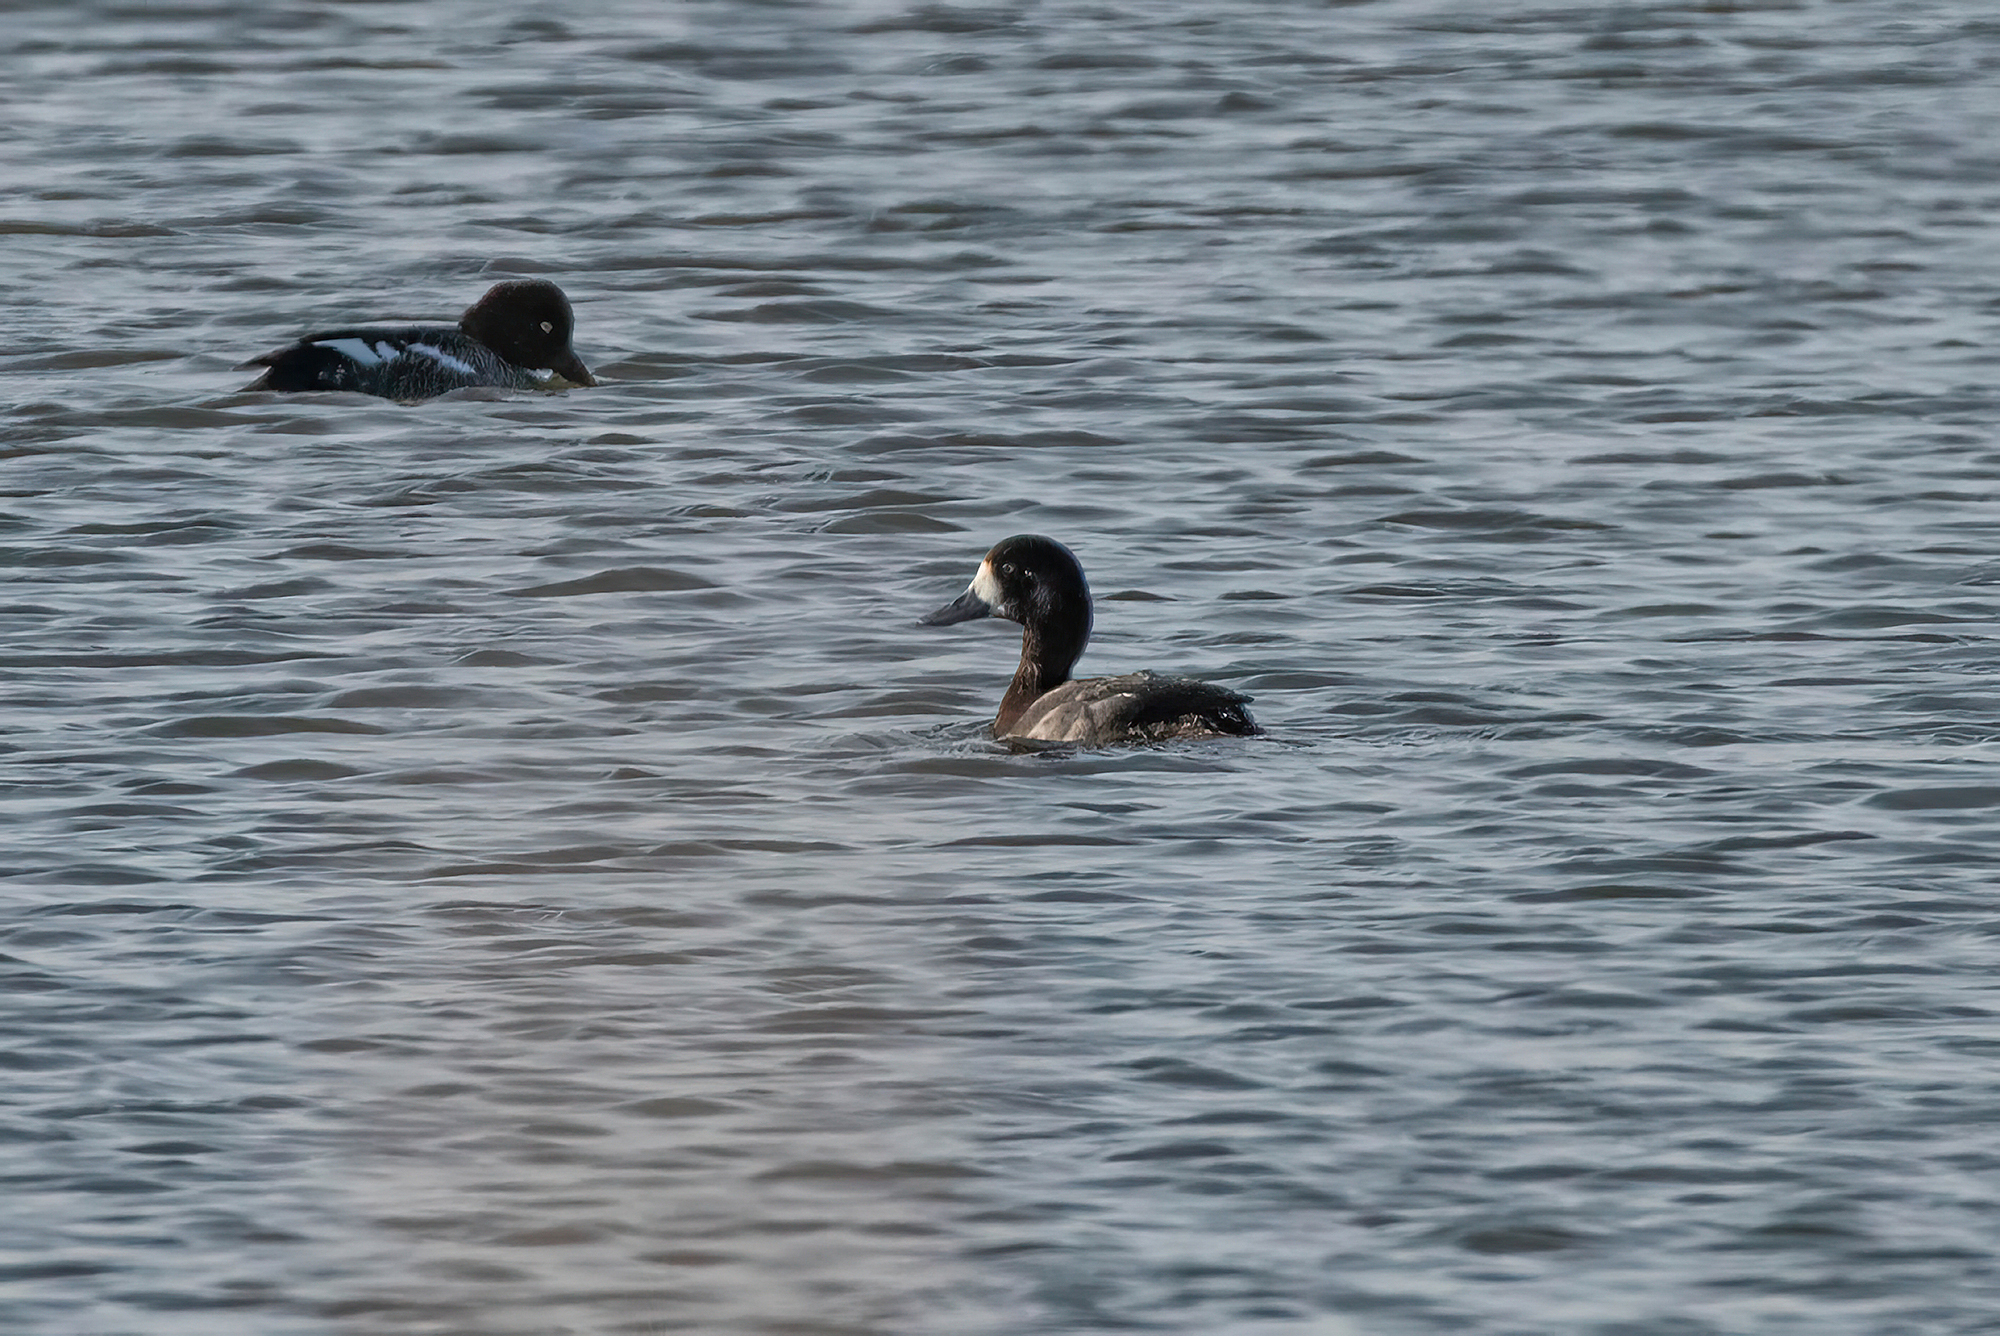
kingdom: Animalia
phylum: Chordata
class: Aves
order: Anseriformes
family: Anatidae
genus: Aythya
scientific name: Aythya marila
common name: Greater scaup
